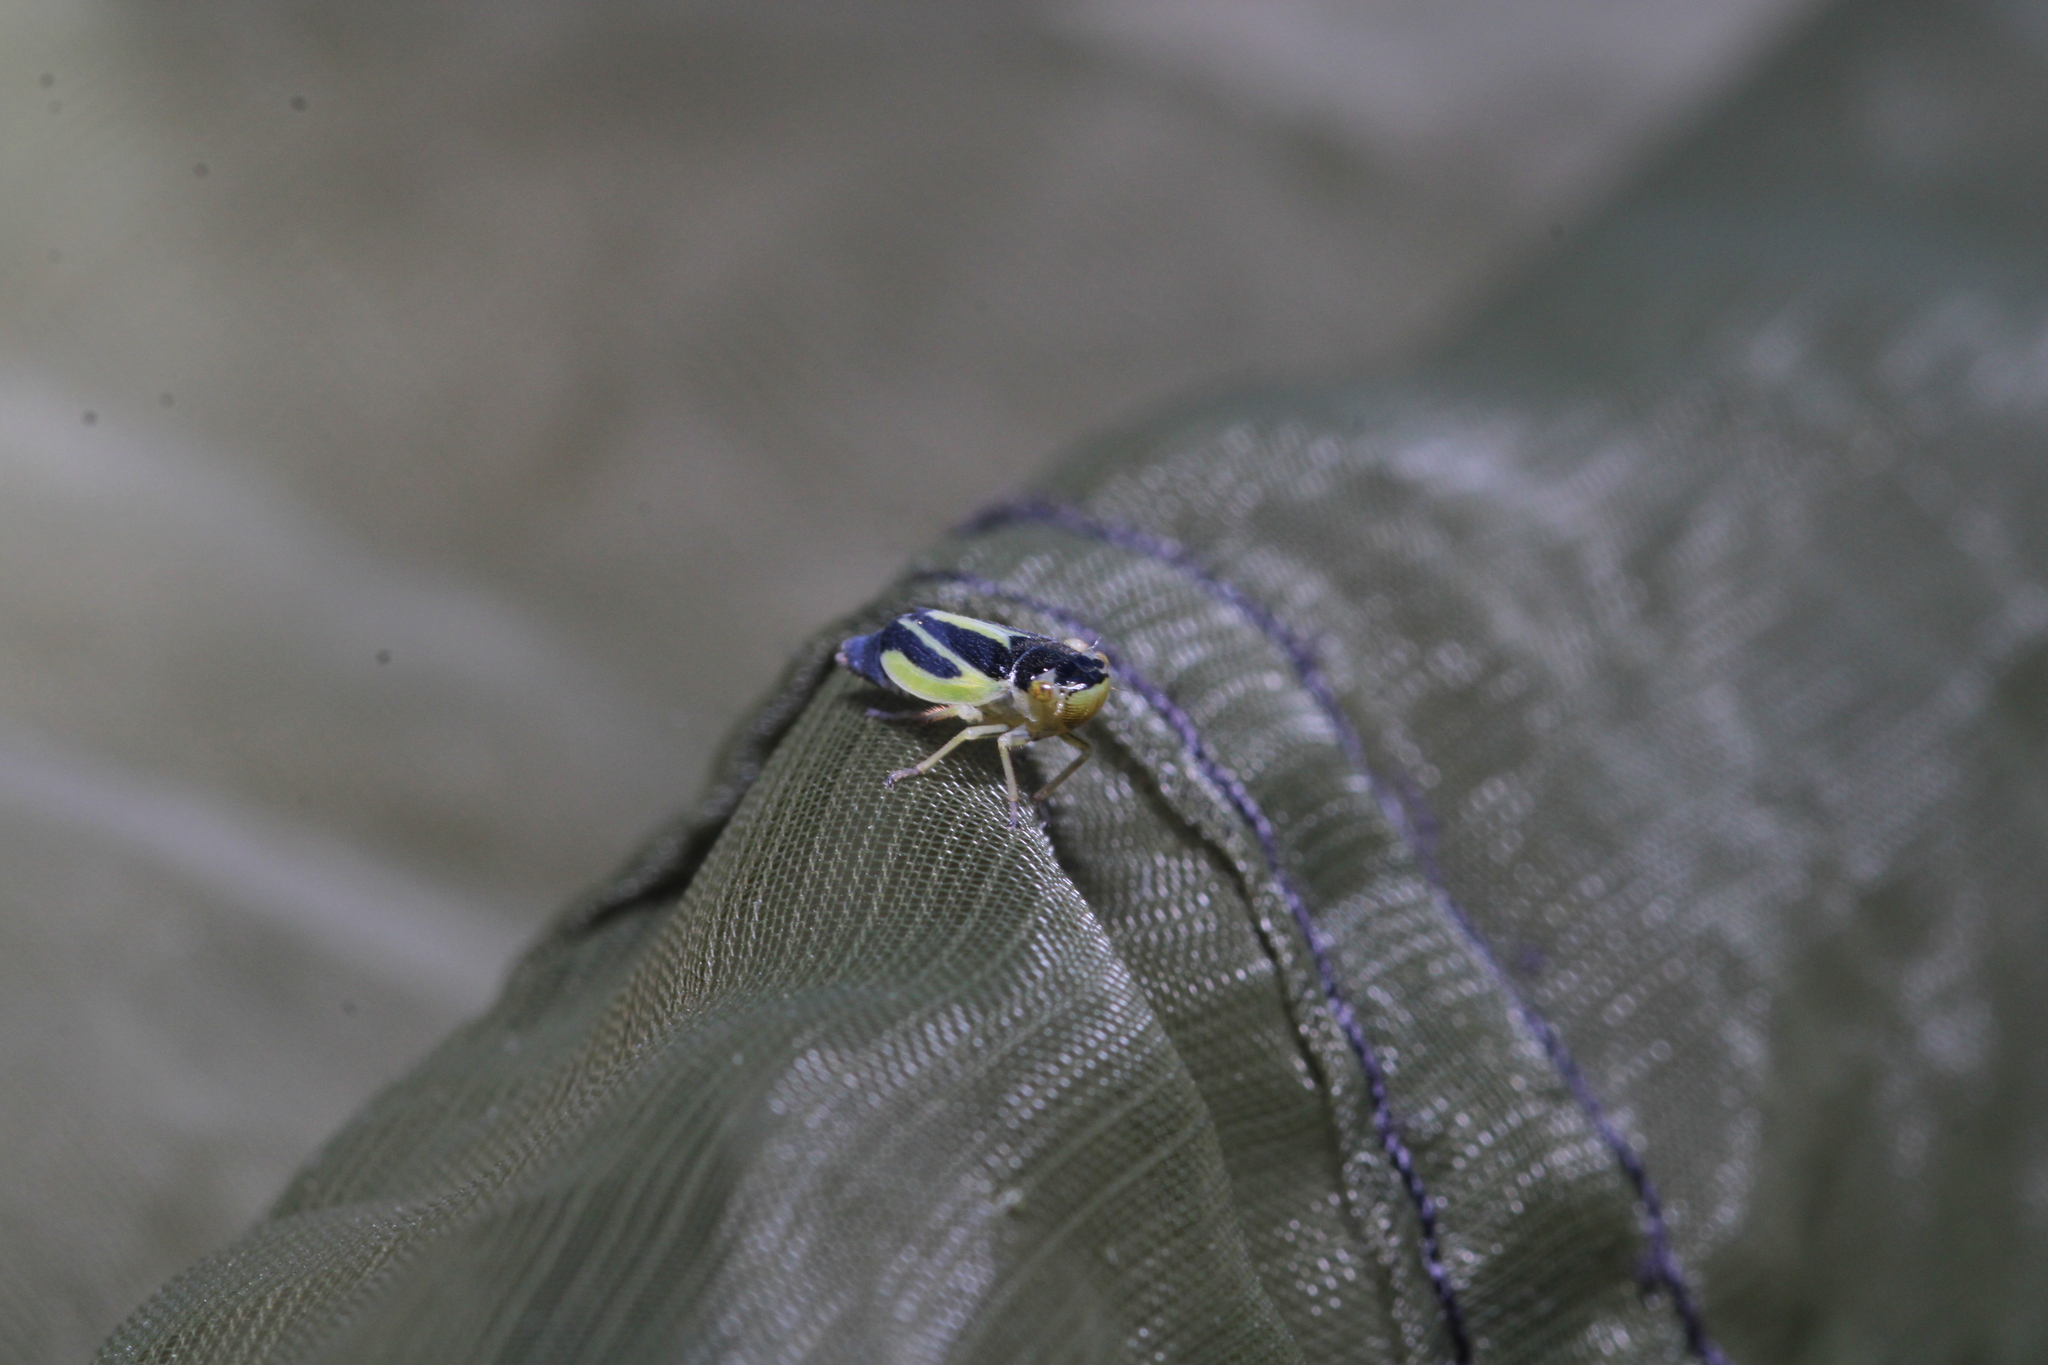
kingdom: Animalia
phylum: Arthropoda
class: Insecta
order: Hemiptera
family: Cicadellidae
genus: Evacanthus
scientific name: Evacanthus interruptus
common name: Leafhopper
